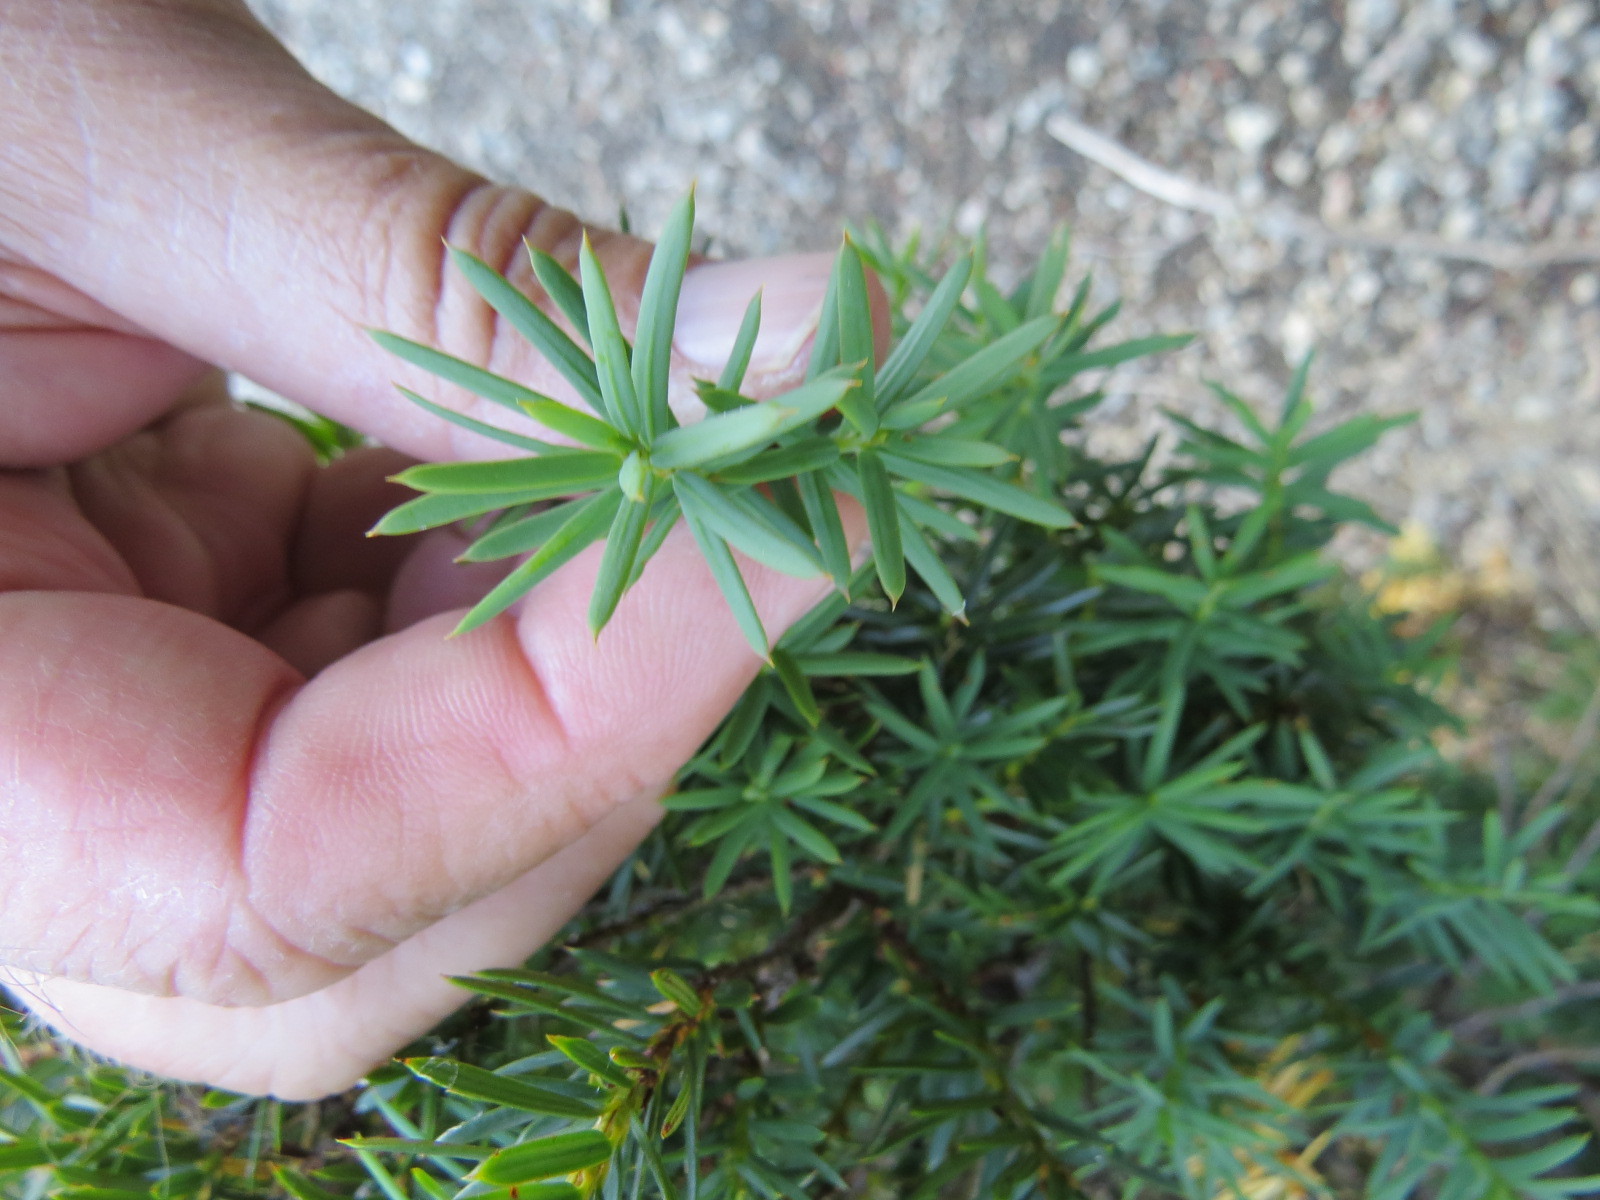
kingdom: Plantae
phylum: Tracheophyta
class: Pinopsida
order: Pinales
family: Taxaceae
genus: Taxus
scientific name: Taxus brevifolia
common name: Pacific yew
